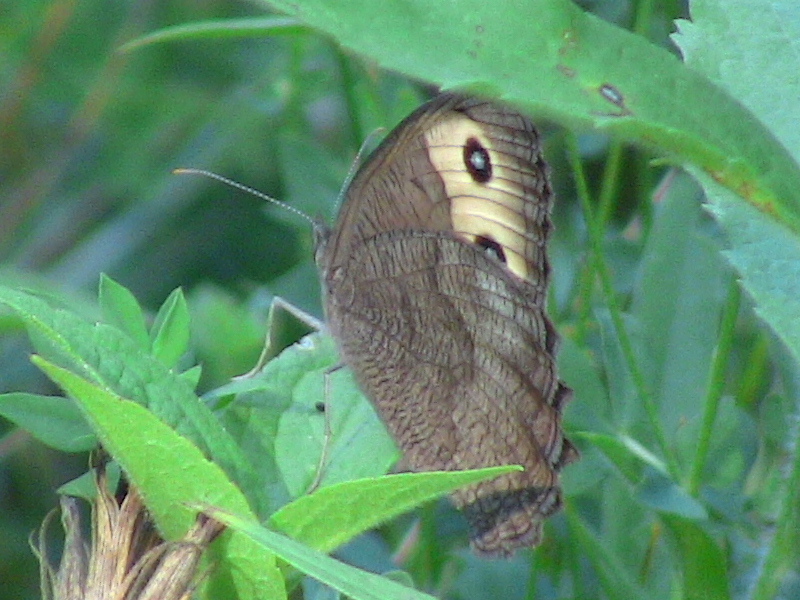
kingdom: Animalia
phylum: Arthropoda
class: Insecta
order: Lepidoptera
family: Nymphalidae
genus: Cercyonis
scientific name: Cercyonis pegala
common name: Common wood-nymph
